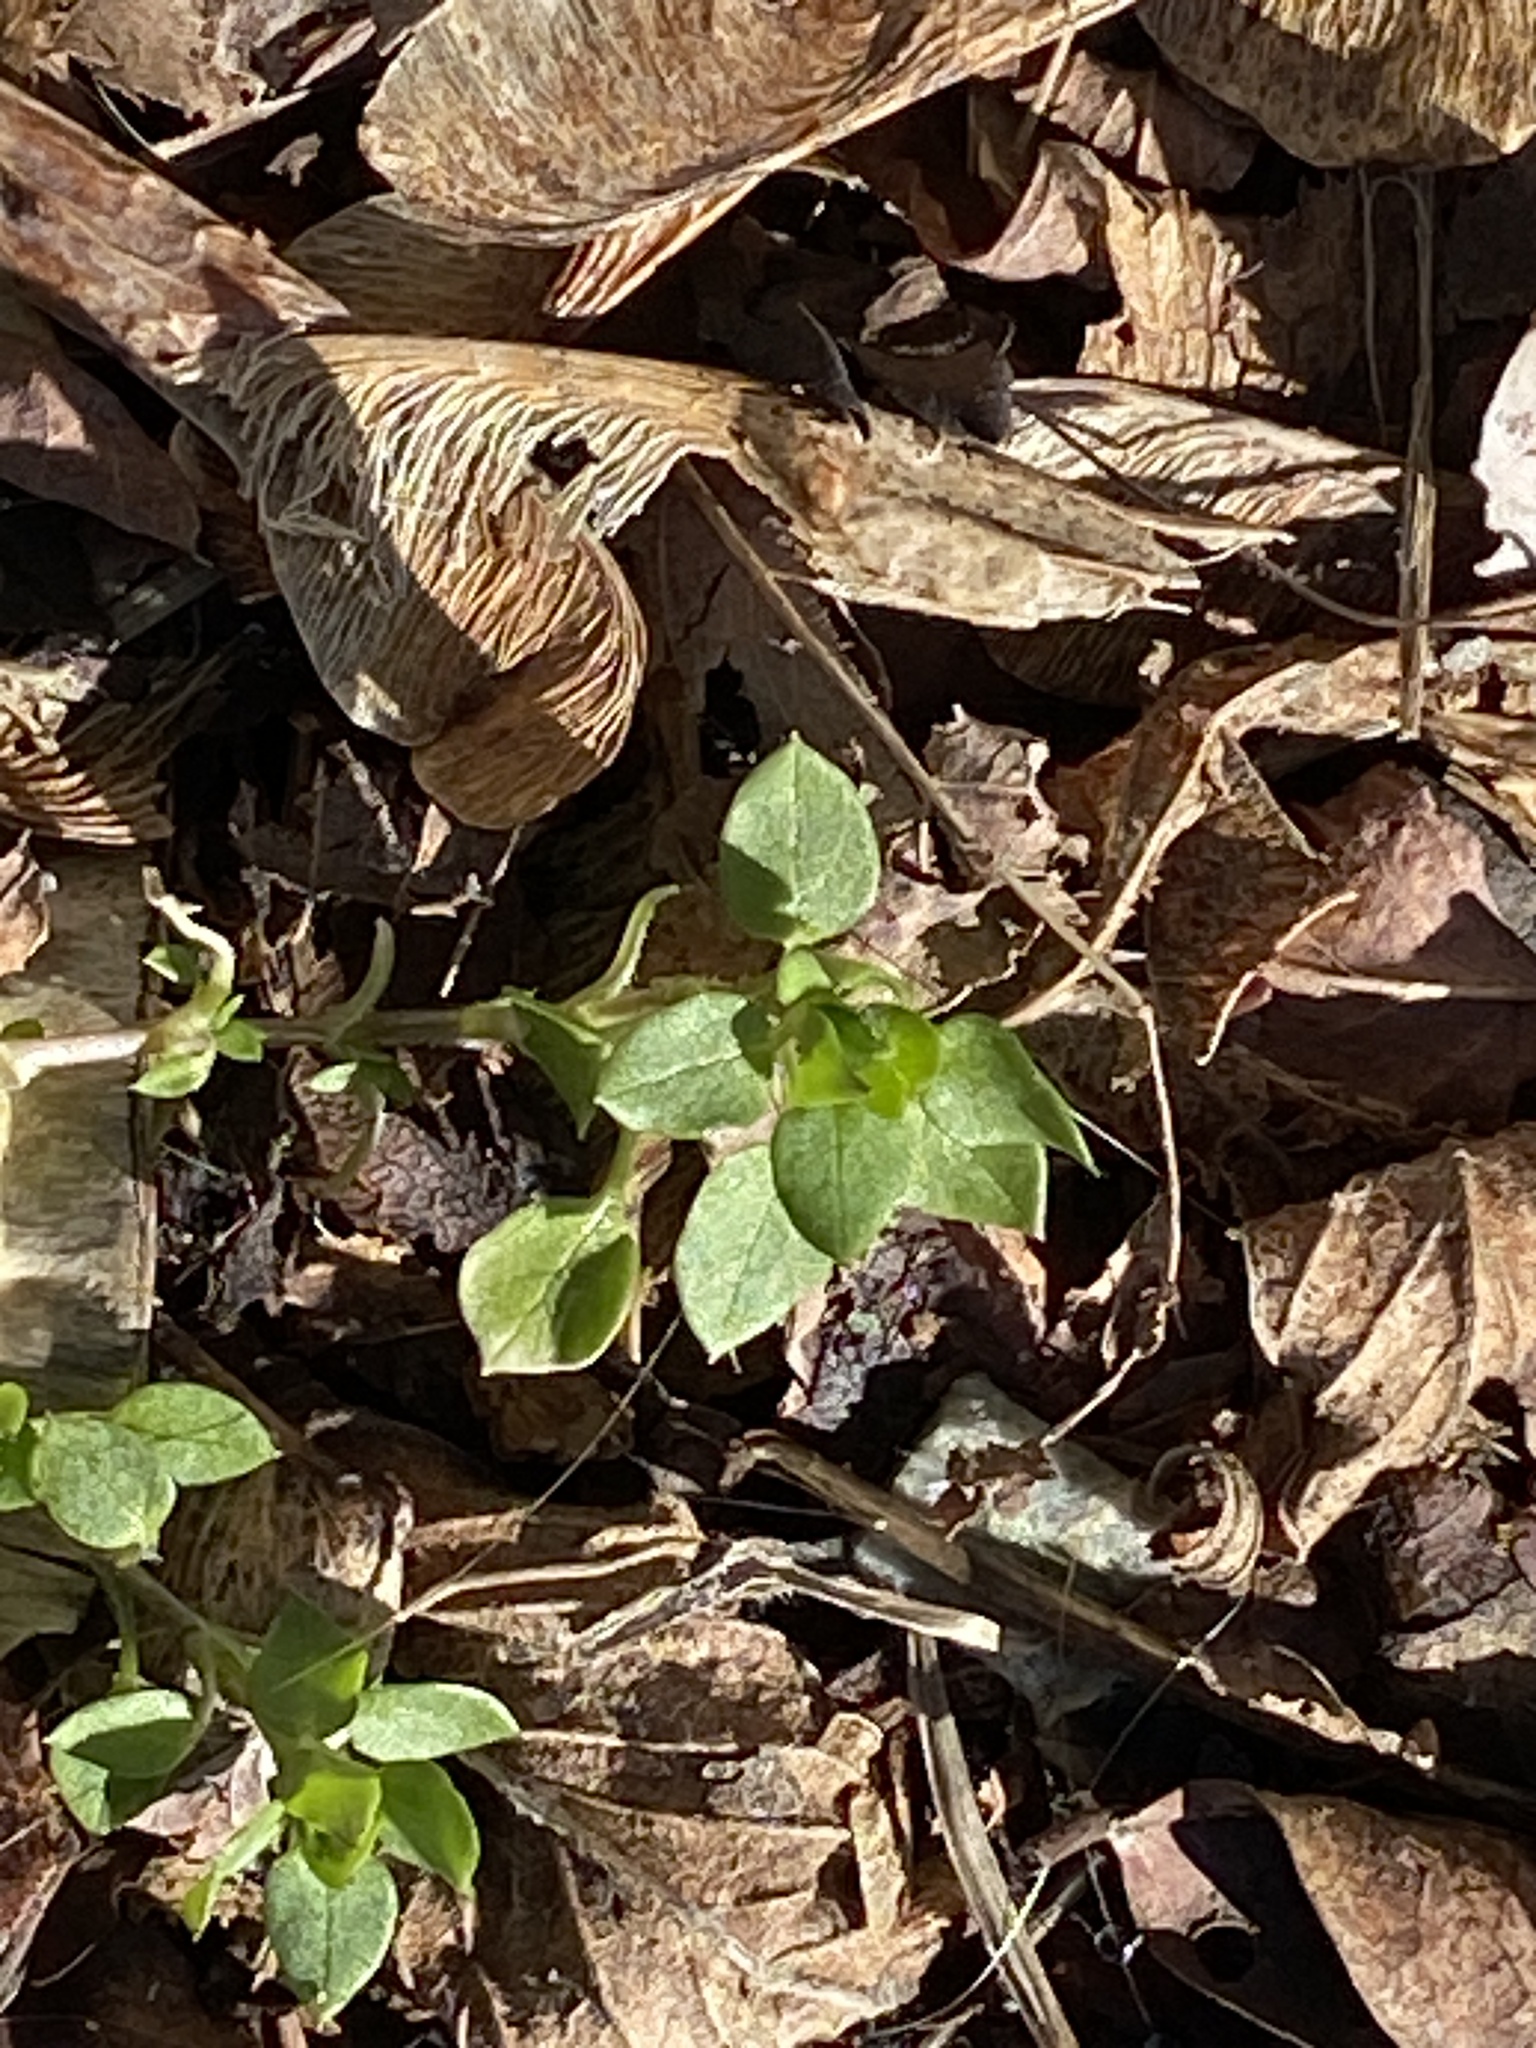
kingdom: Plantae
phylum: Tracheophyta
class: Magnoliopsida
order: Caryophyllales
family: Caryophyllaceae
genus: Stellaria
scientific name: Stellaria media
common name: Common chickweed
